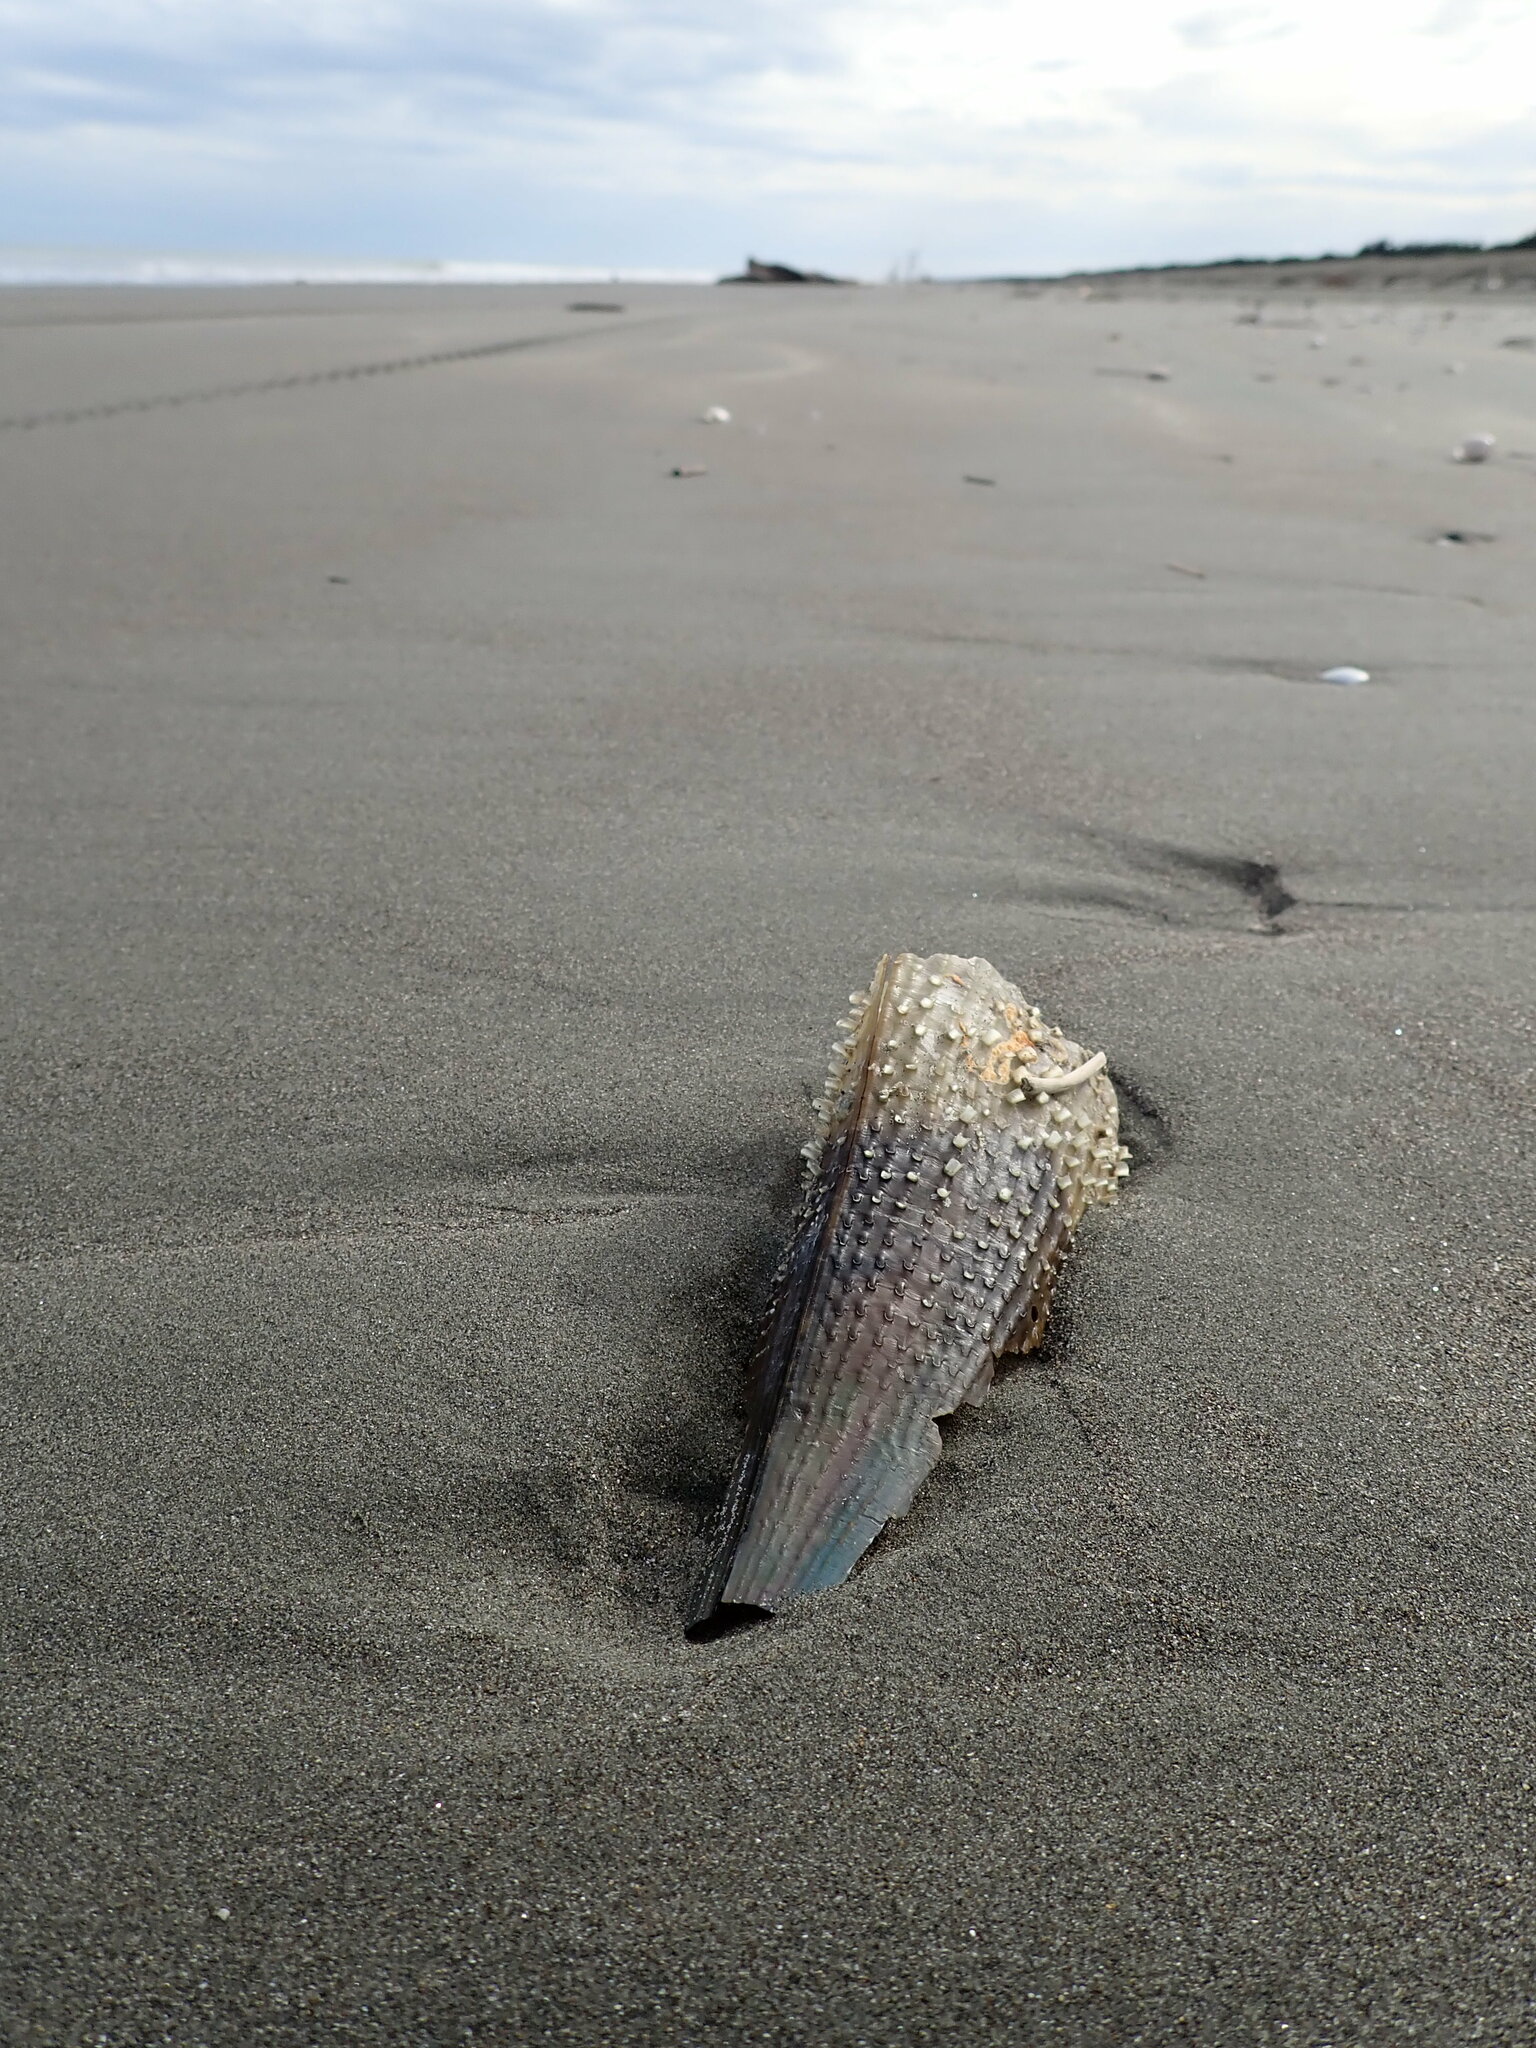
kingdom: Animalia
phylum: Mollusca
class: Bivalvia
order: Ostreida
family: Pinnidae
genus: Atrina
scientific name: Atrina zelandica
